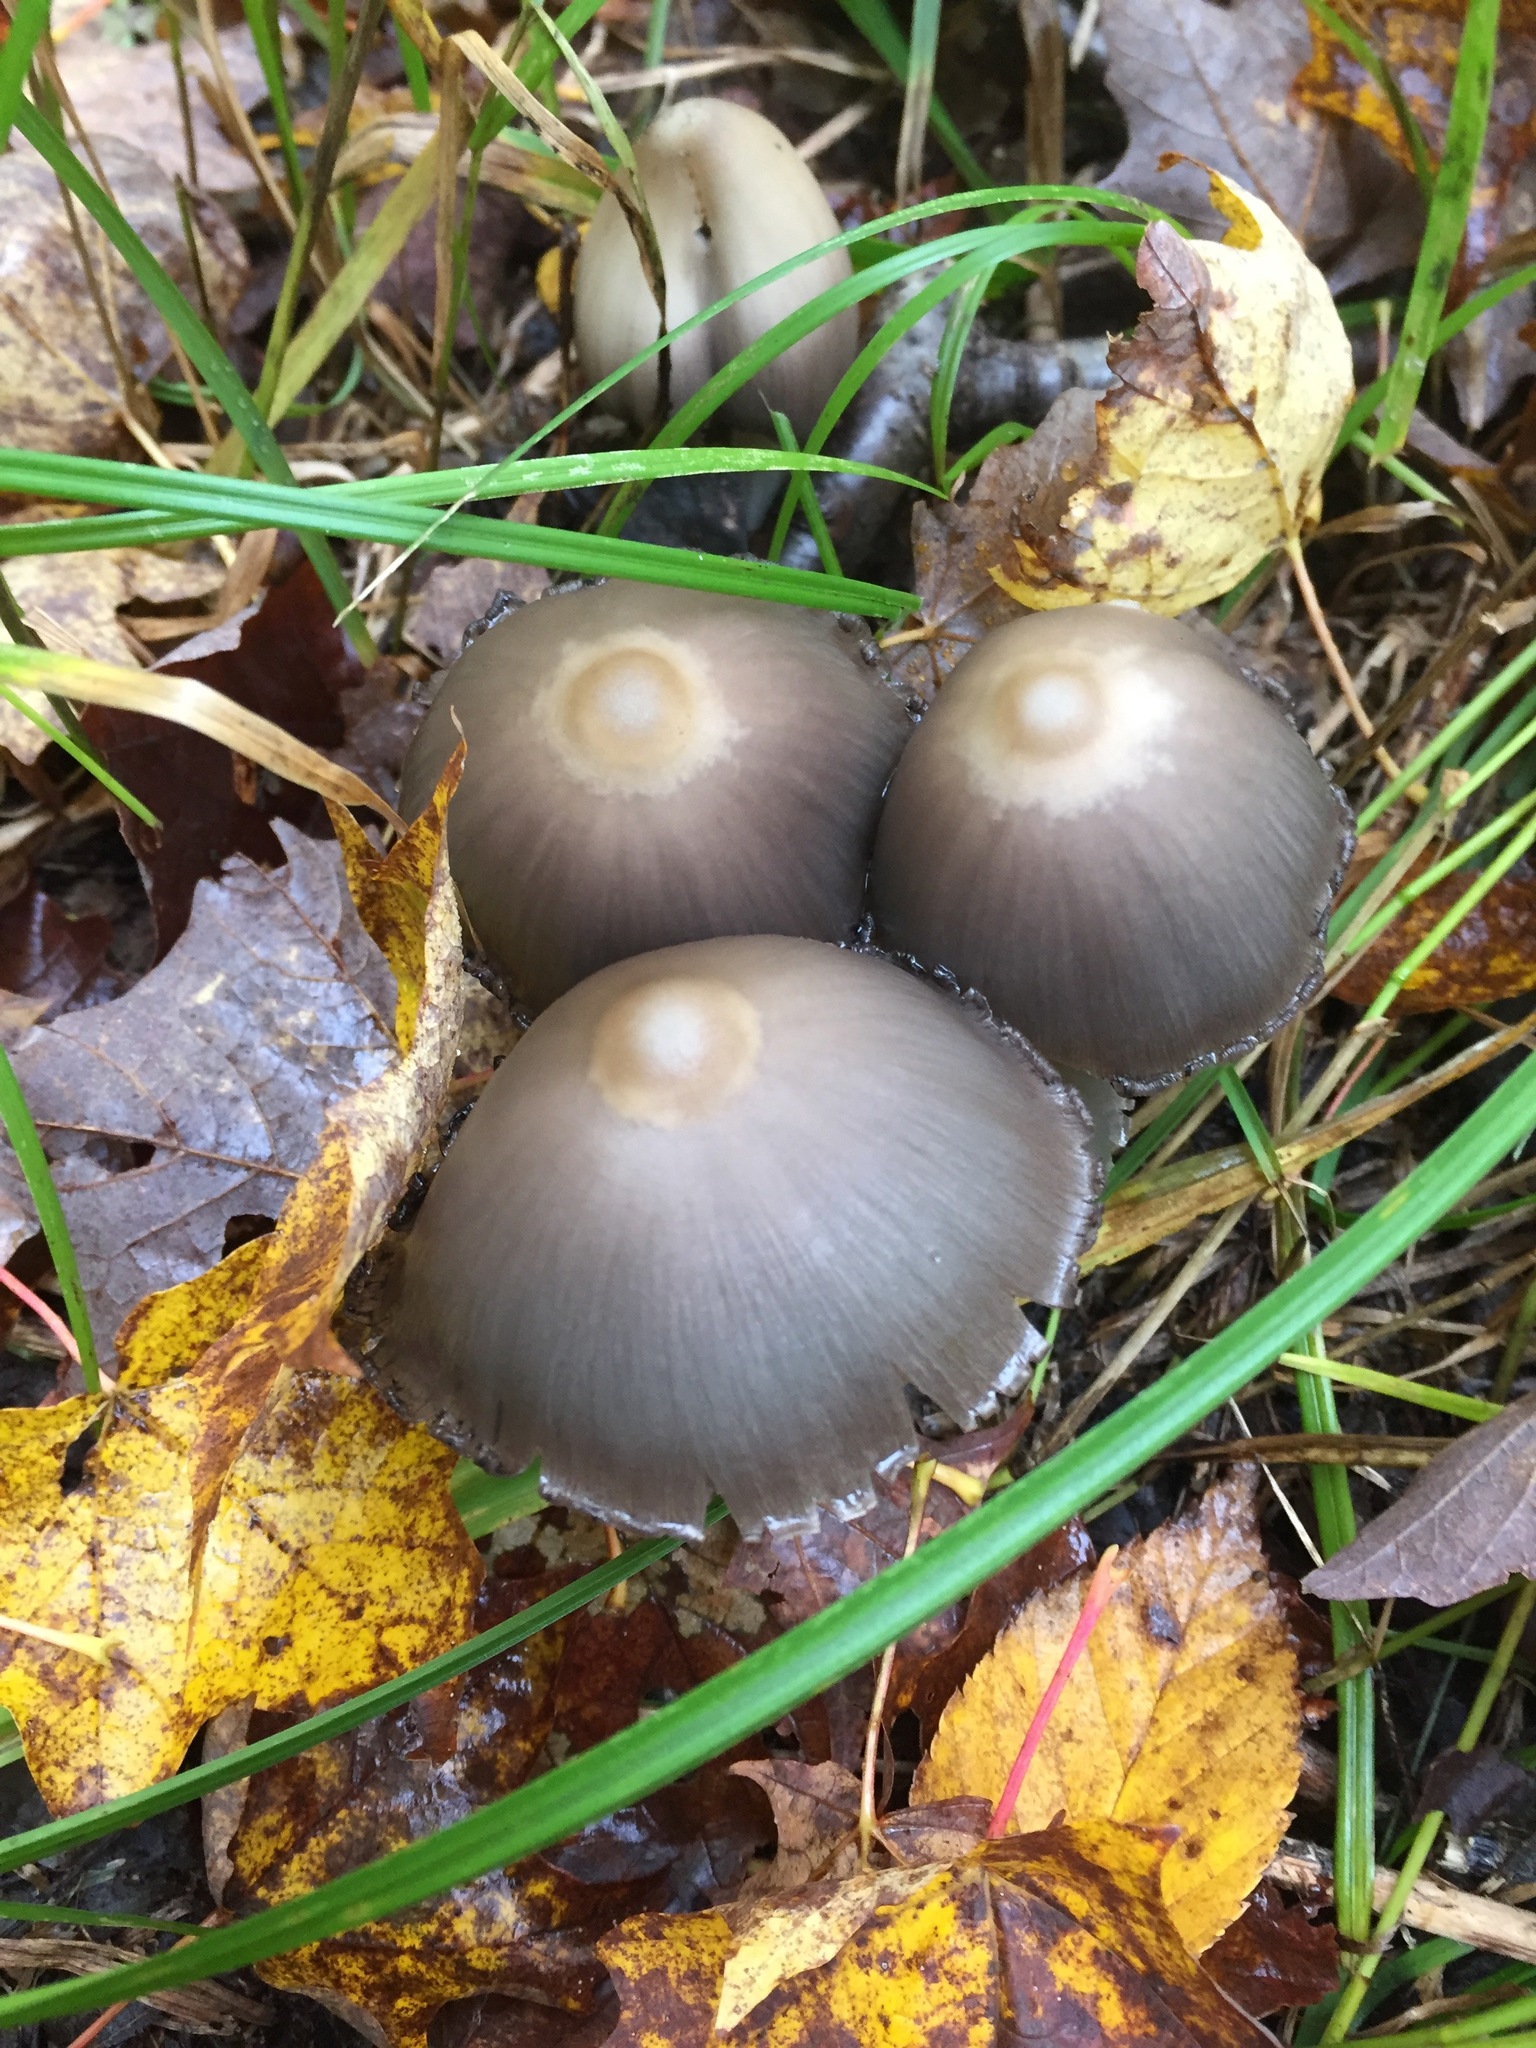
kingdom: Fungi
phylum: Basidiomycota
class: Agaricomycetes
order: Agaricales
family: Psathyrellaceae
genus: Coprinopsis
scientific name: Coprinopsis atramentaria
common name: Common ink-cap
